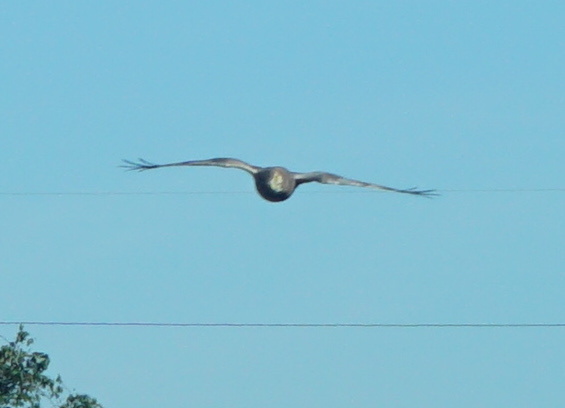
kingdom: Animalia
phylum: Chordata
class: Aves
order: Accipitriformes
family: Accipitridae
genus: Circus
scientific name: Circus cyaneus
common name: Hen harrier
